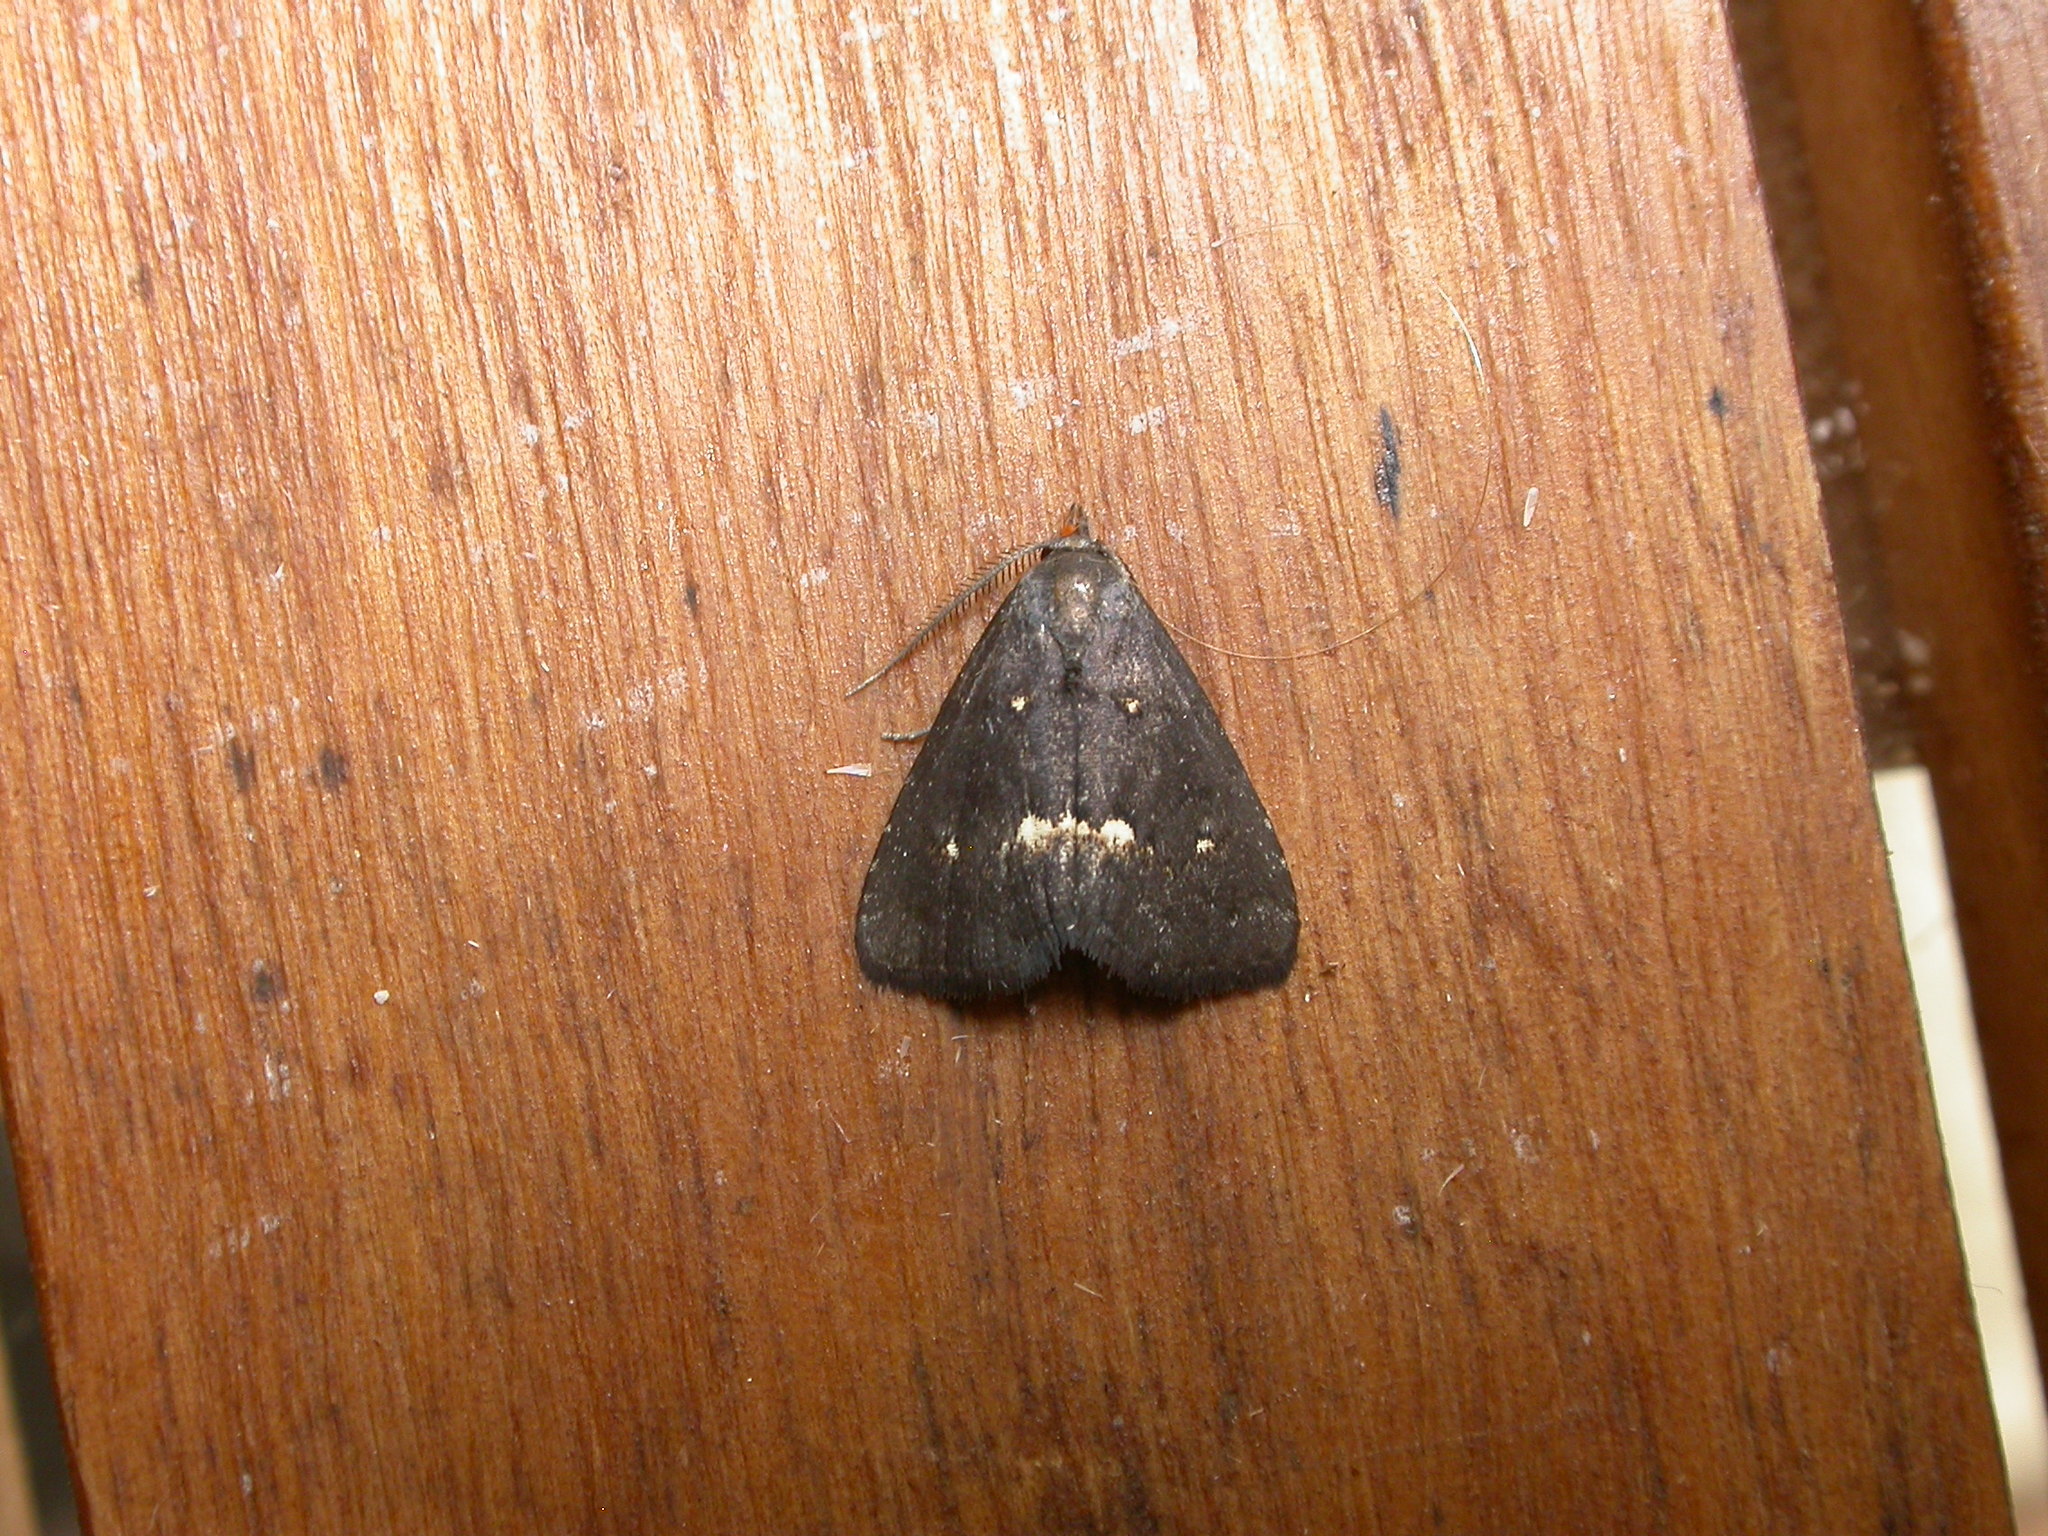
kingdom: Animalia
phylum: Arthropoda
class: Insecta
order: Lepidoptera
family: Erebidae
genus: Elaphristis
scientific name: Elaphristis melanica
